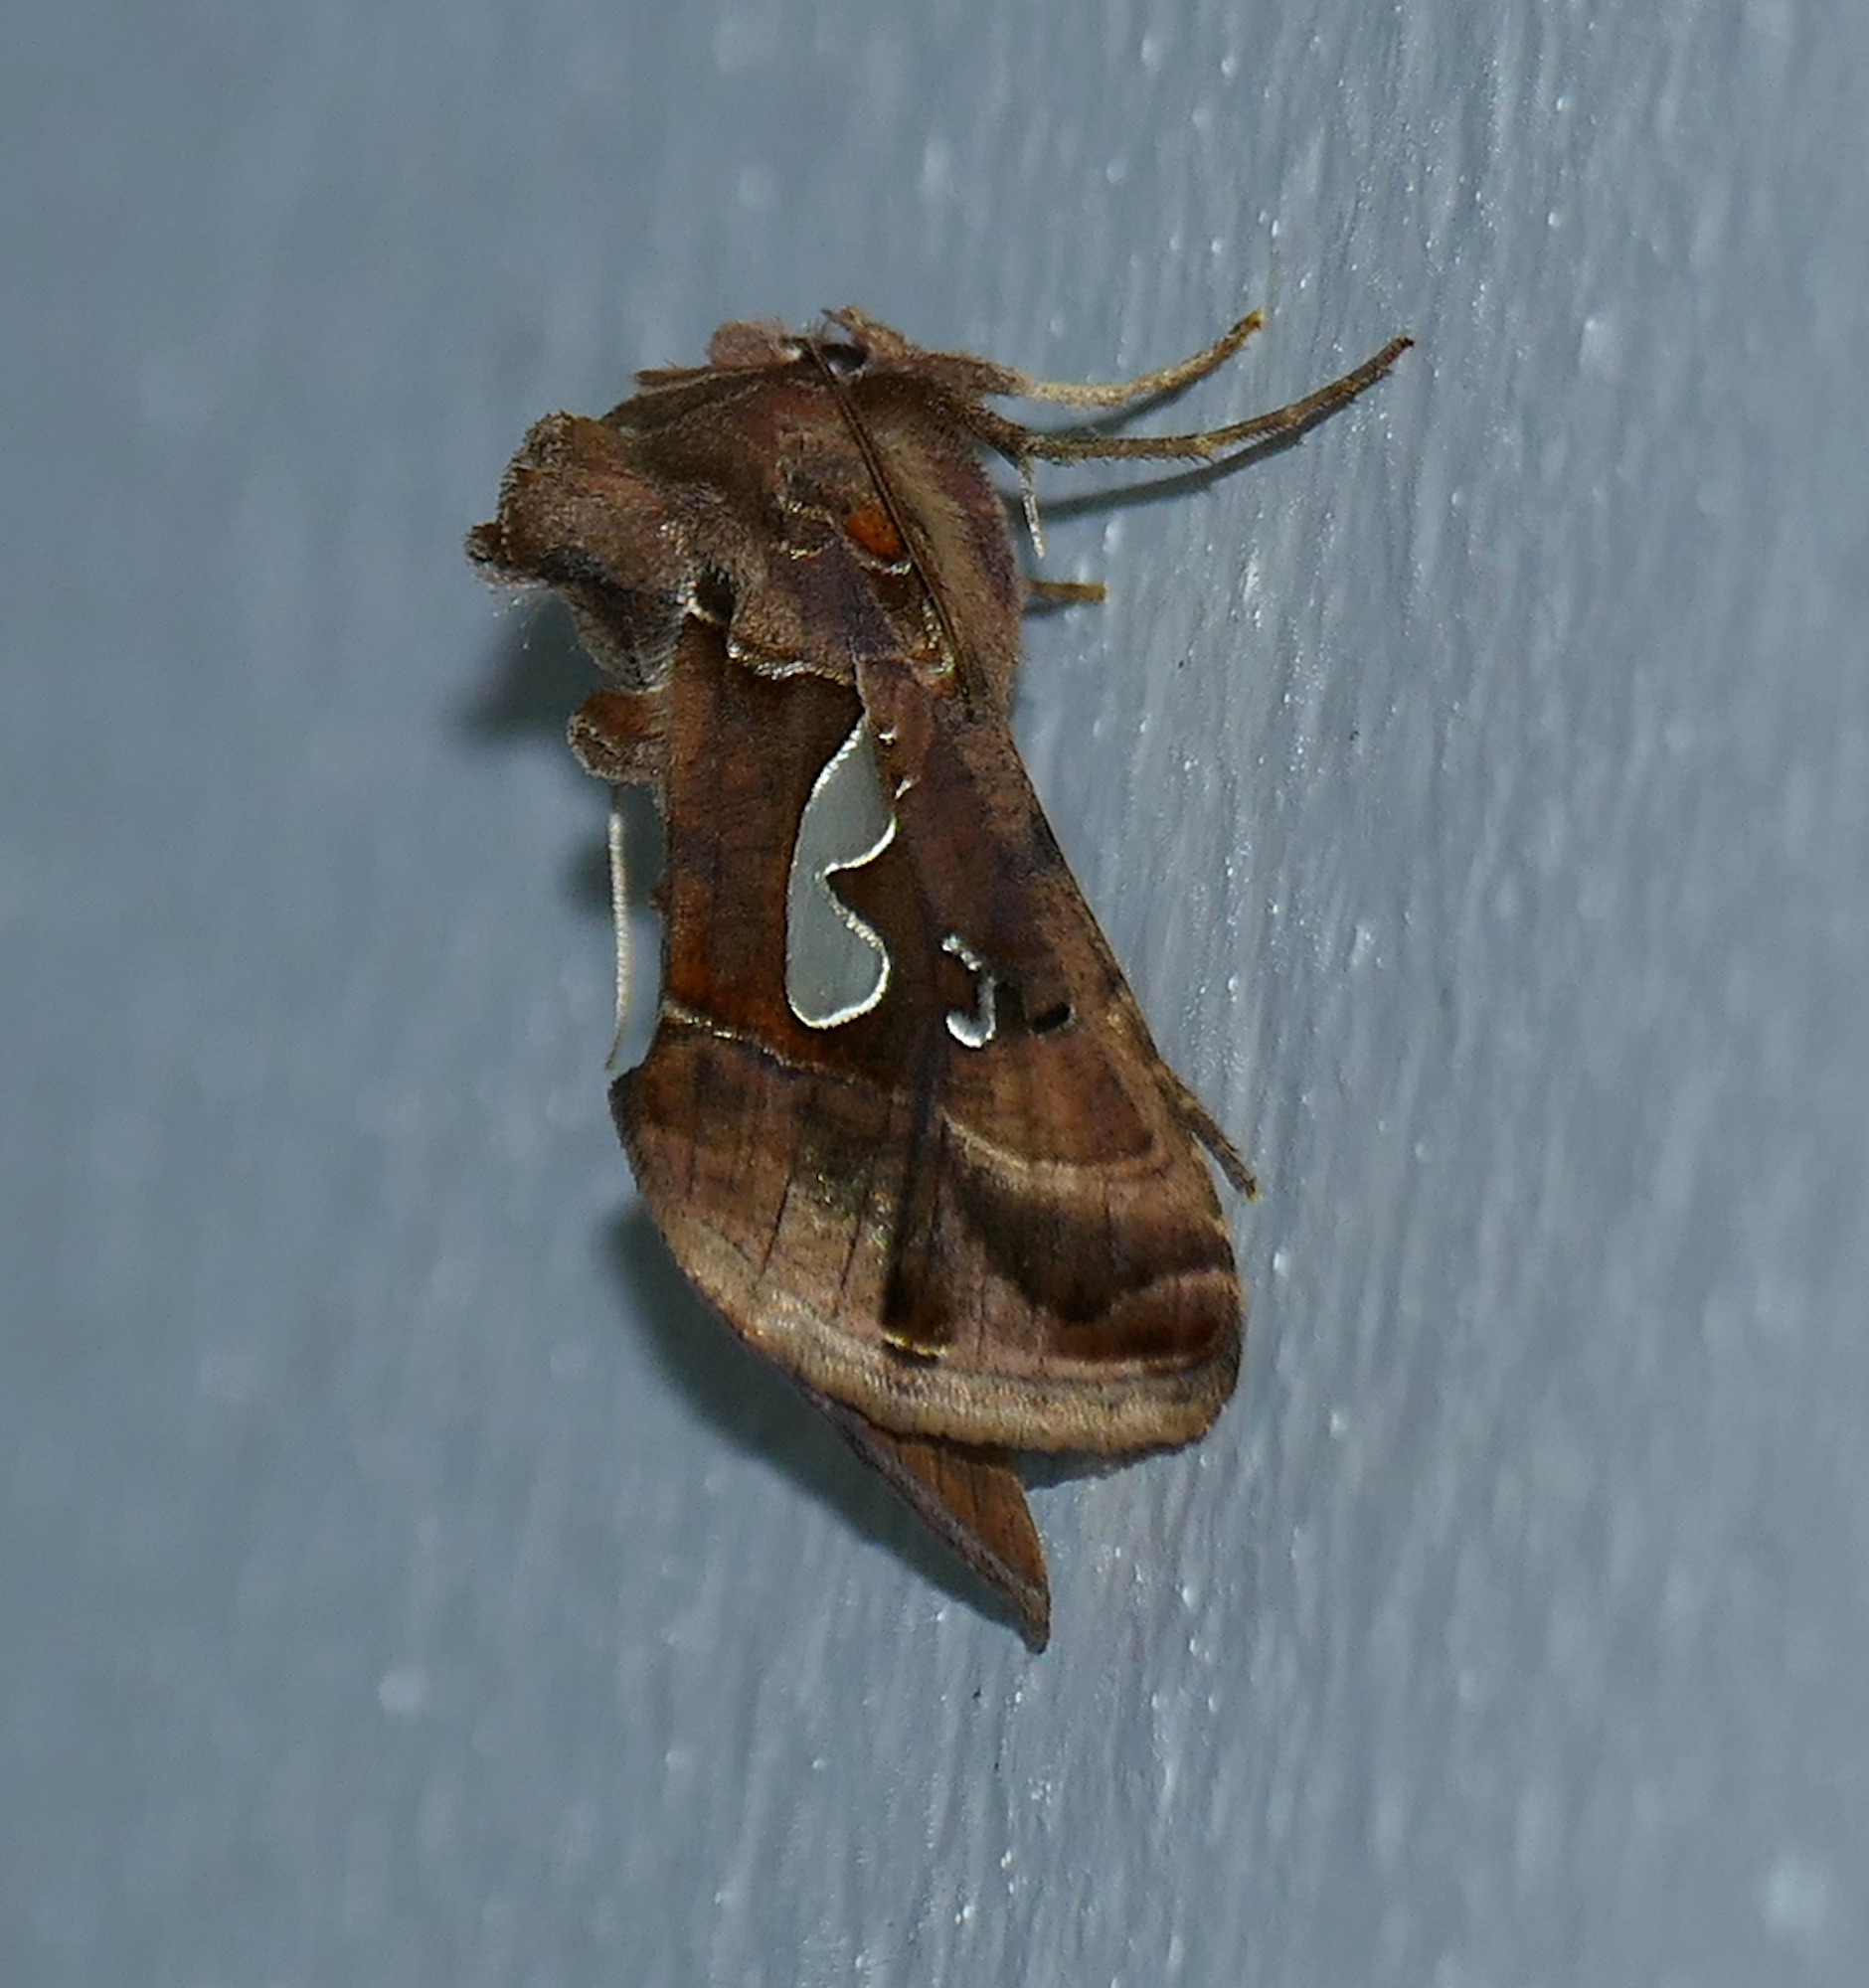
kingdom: Animalia
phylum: Arthropoda
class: Insecta
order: Lepidoptera
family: Noctuidae
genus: Megalographa
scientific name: Megalographa biloba
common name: Cutworm
